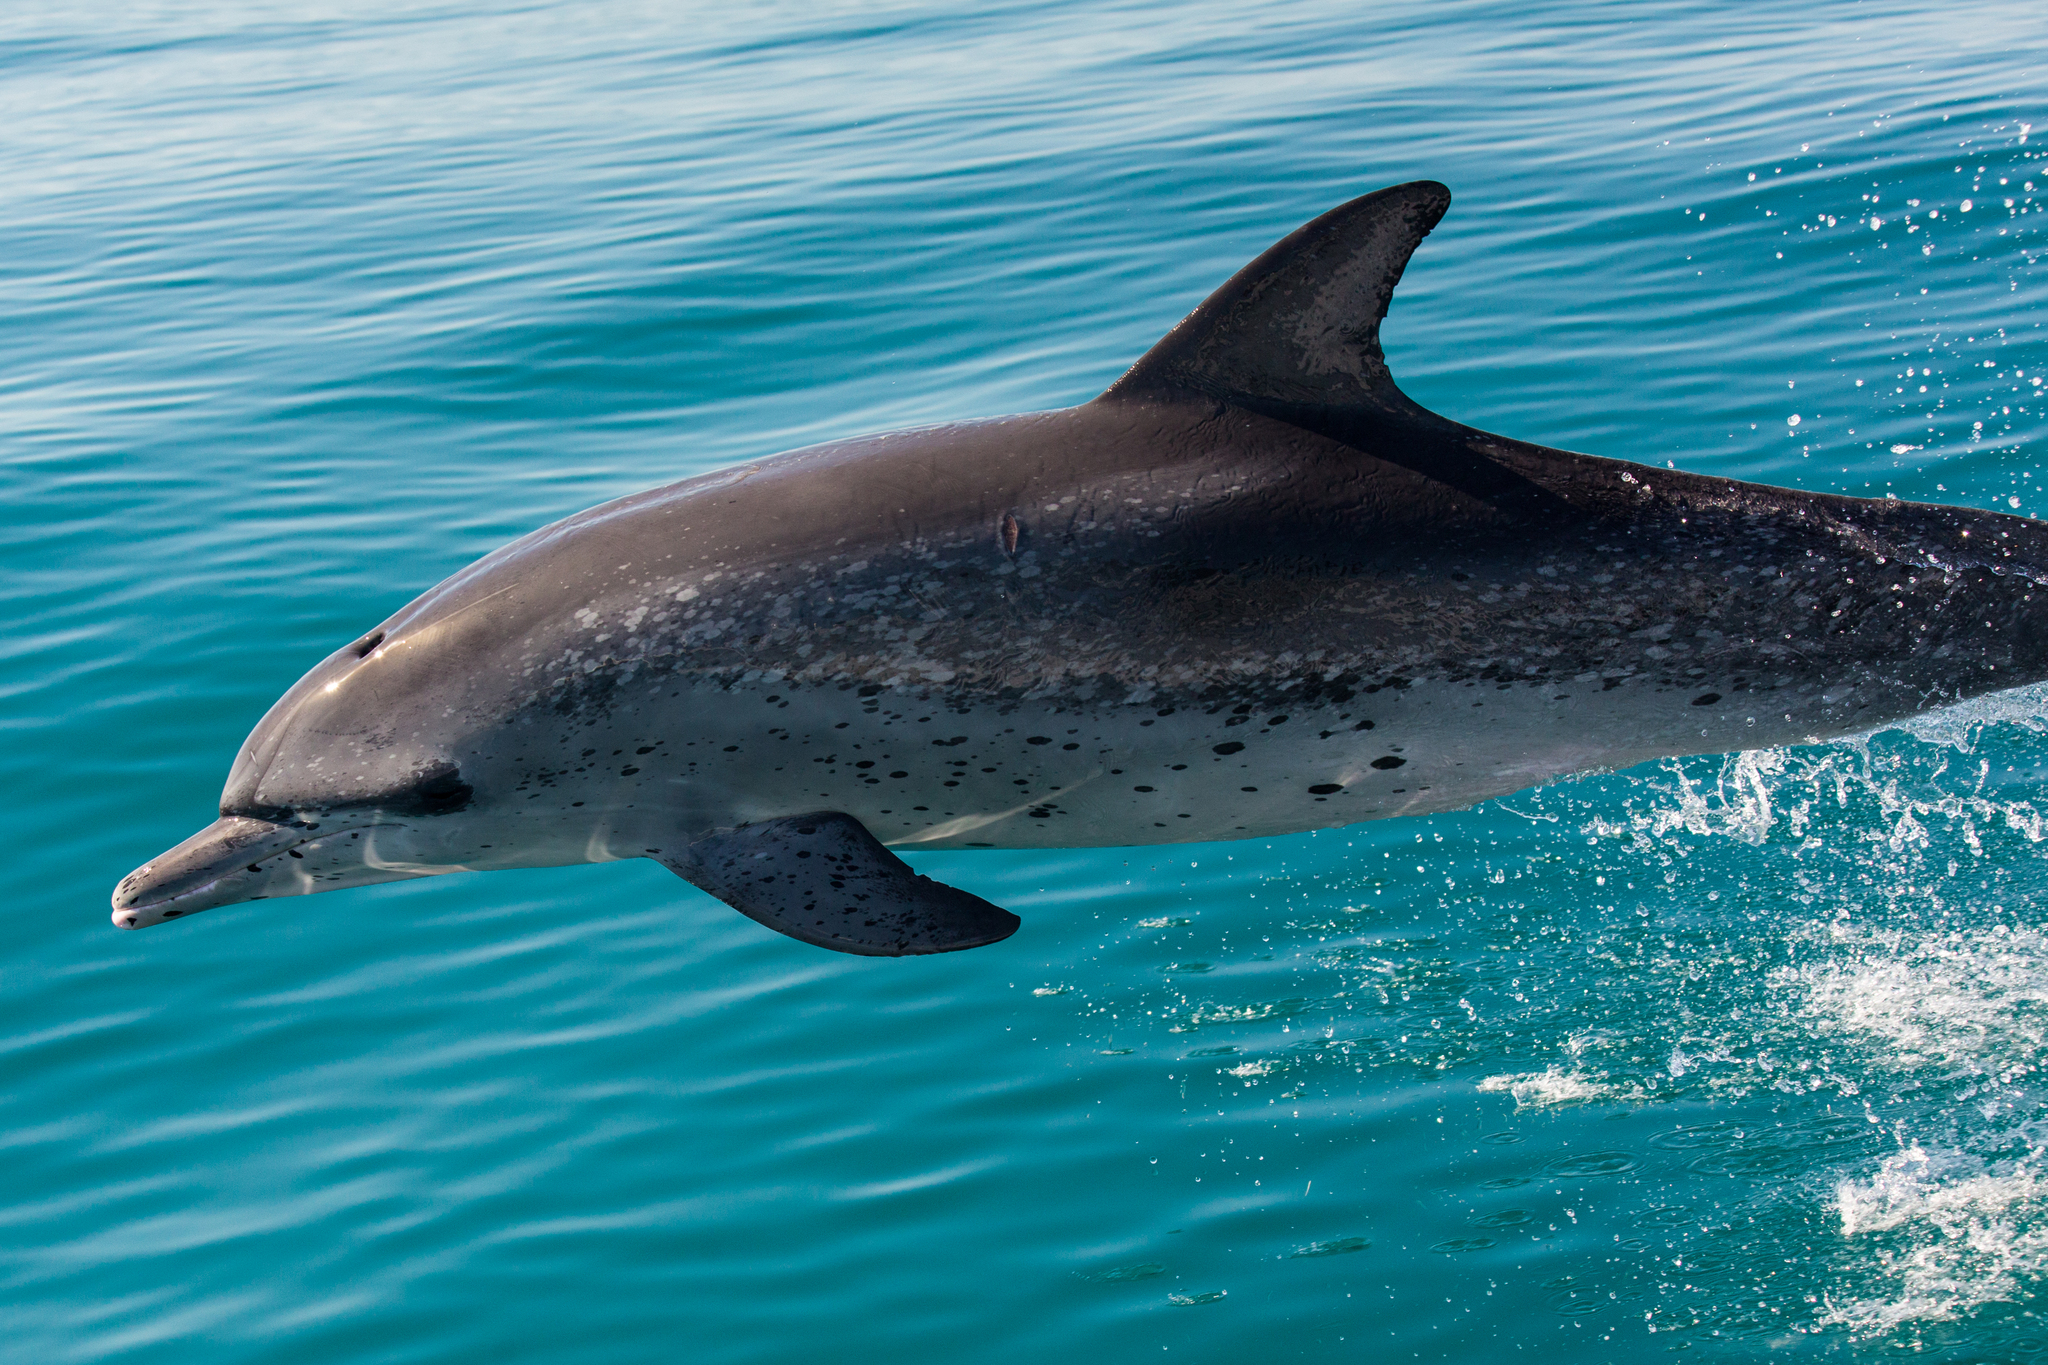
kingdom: Animalia
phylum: Chordata
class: Mammalia
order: Cetacea
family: Delphinidae
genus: Stenella
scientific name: Stenella frontalis
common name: Atlantic spotted dolphin
